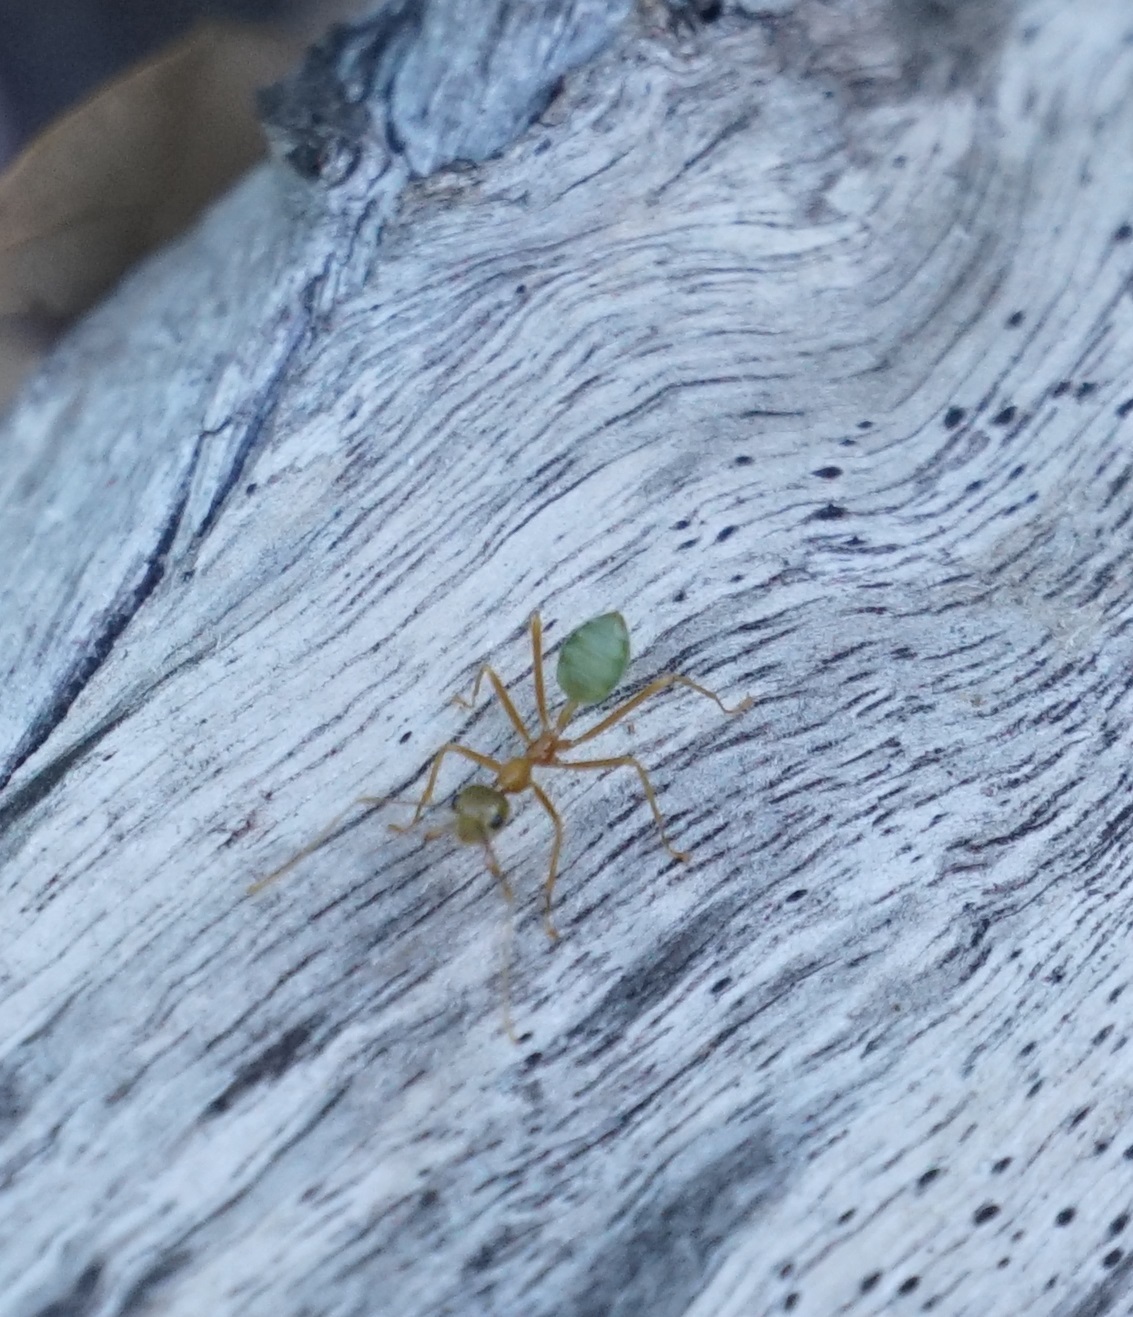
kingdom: Animalia
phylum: Arthropoda
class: Insecta
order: Hymenoptera
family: Formicidae
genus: Oecophylla
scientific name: Oecophylla smaragdina
